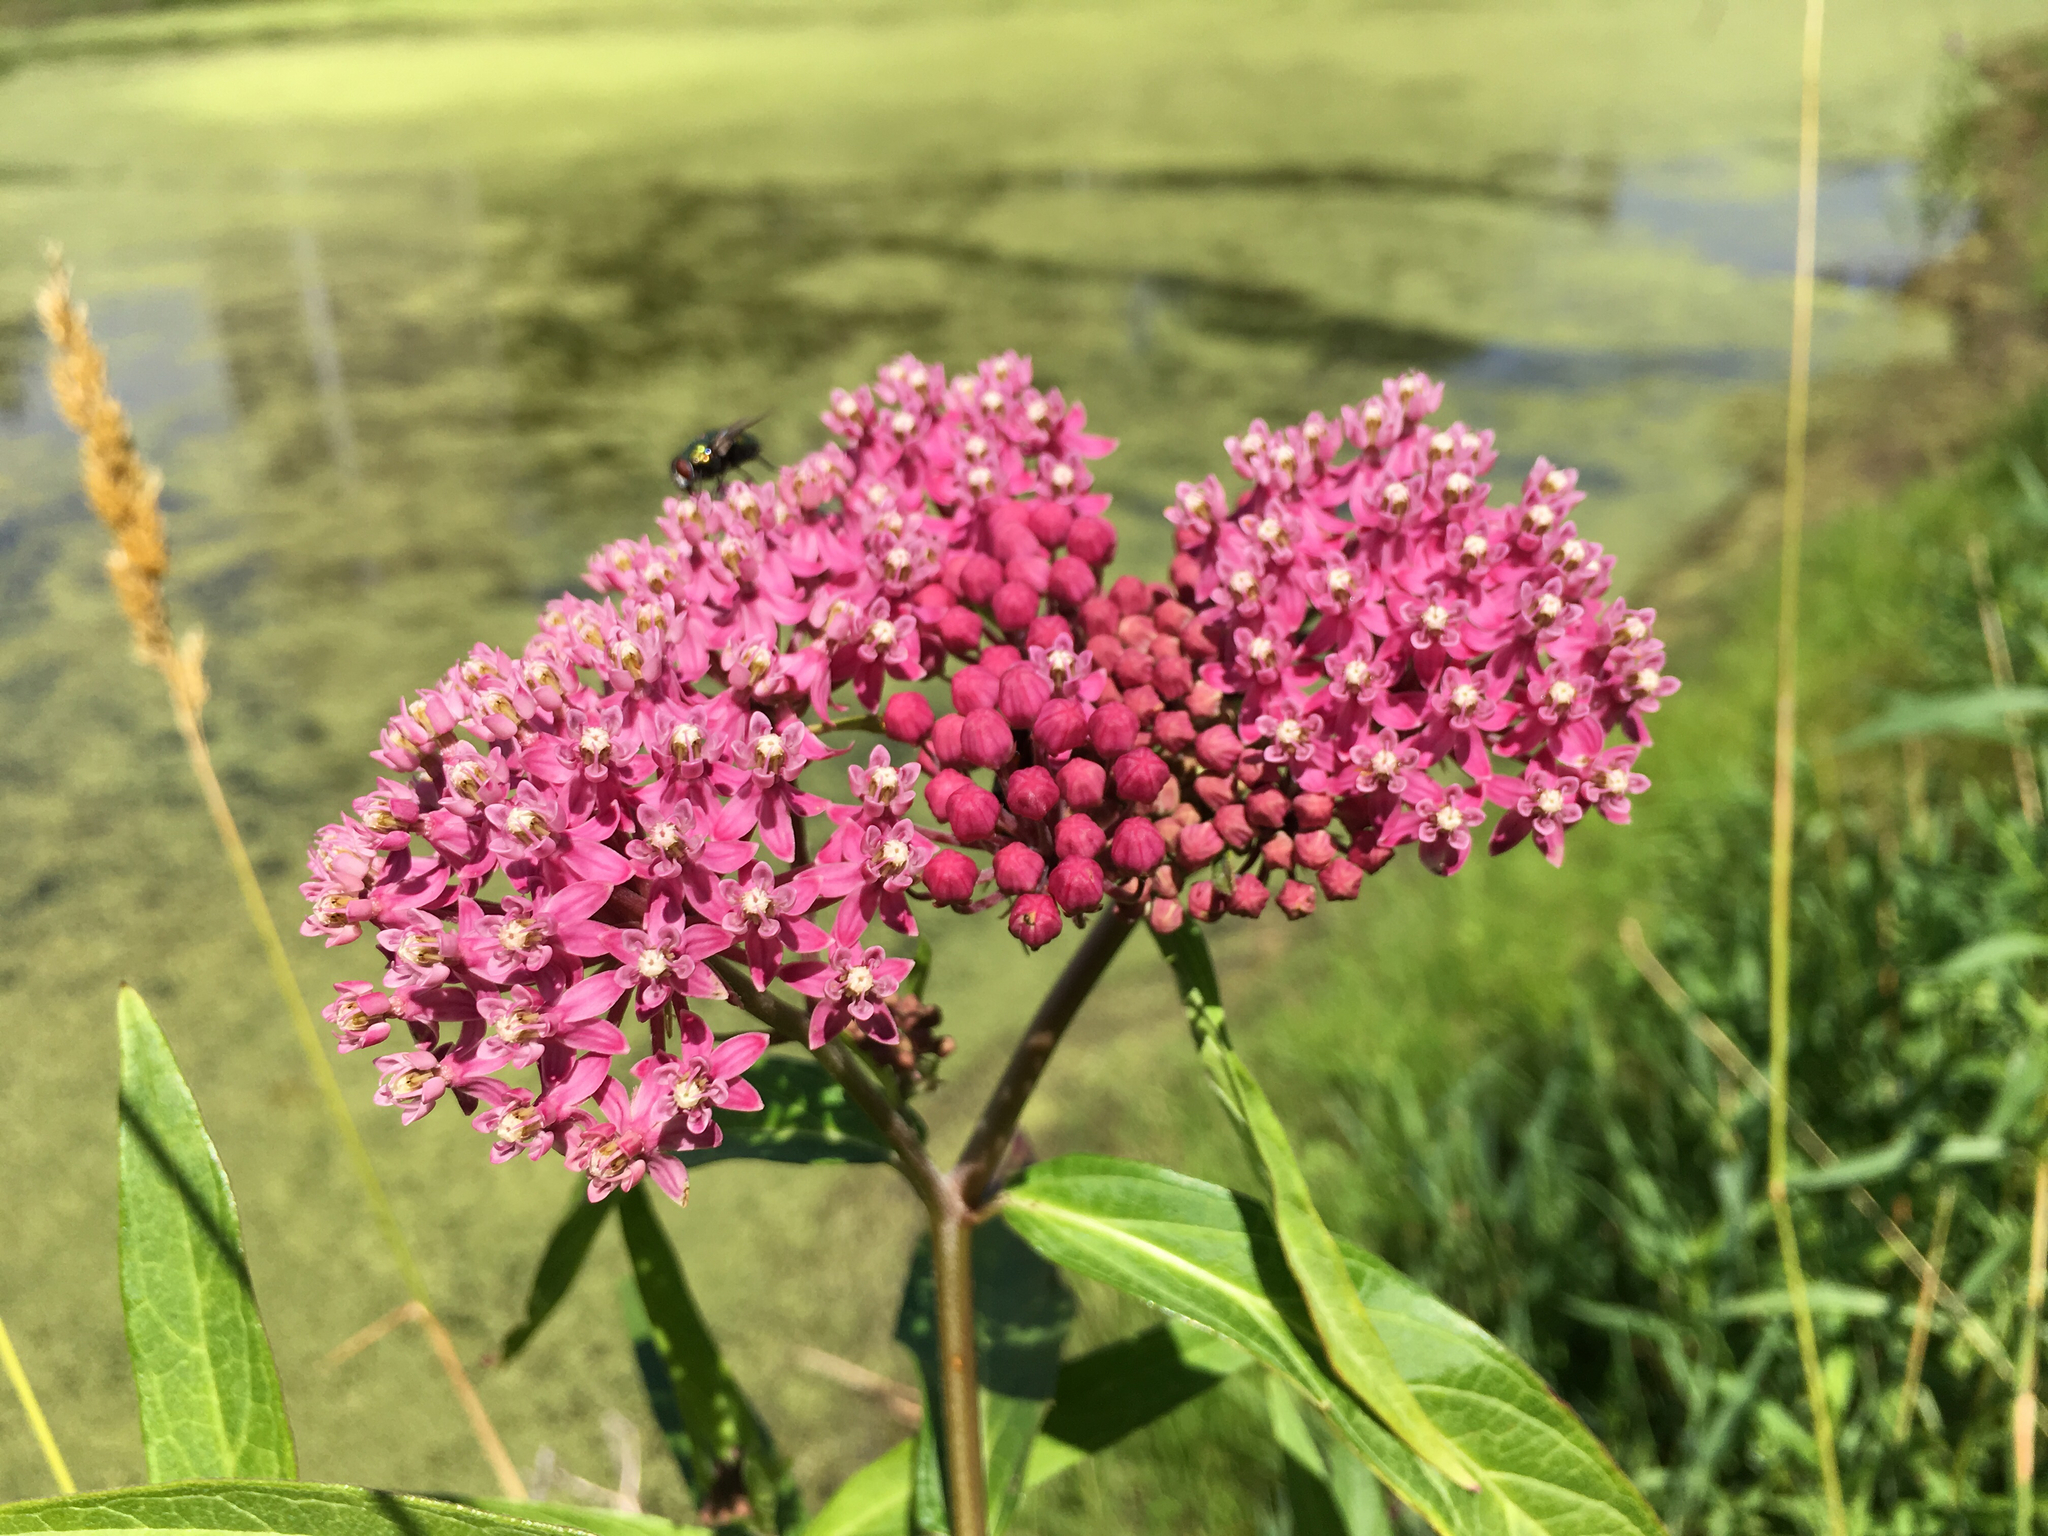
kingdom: Plantae
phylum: Tracheophyta
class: Magnoliopsida
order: Gentianales
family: Apocynaceae
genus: Asclepias
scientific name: Asclepias incarnata
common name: Swamp milkweed
